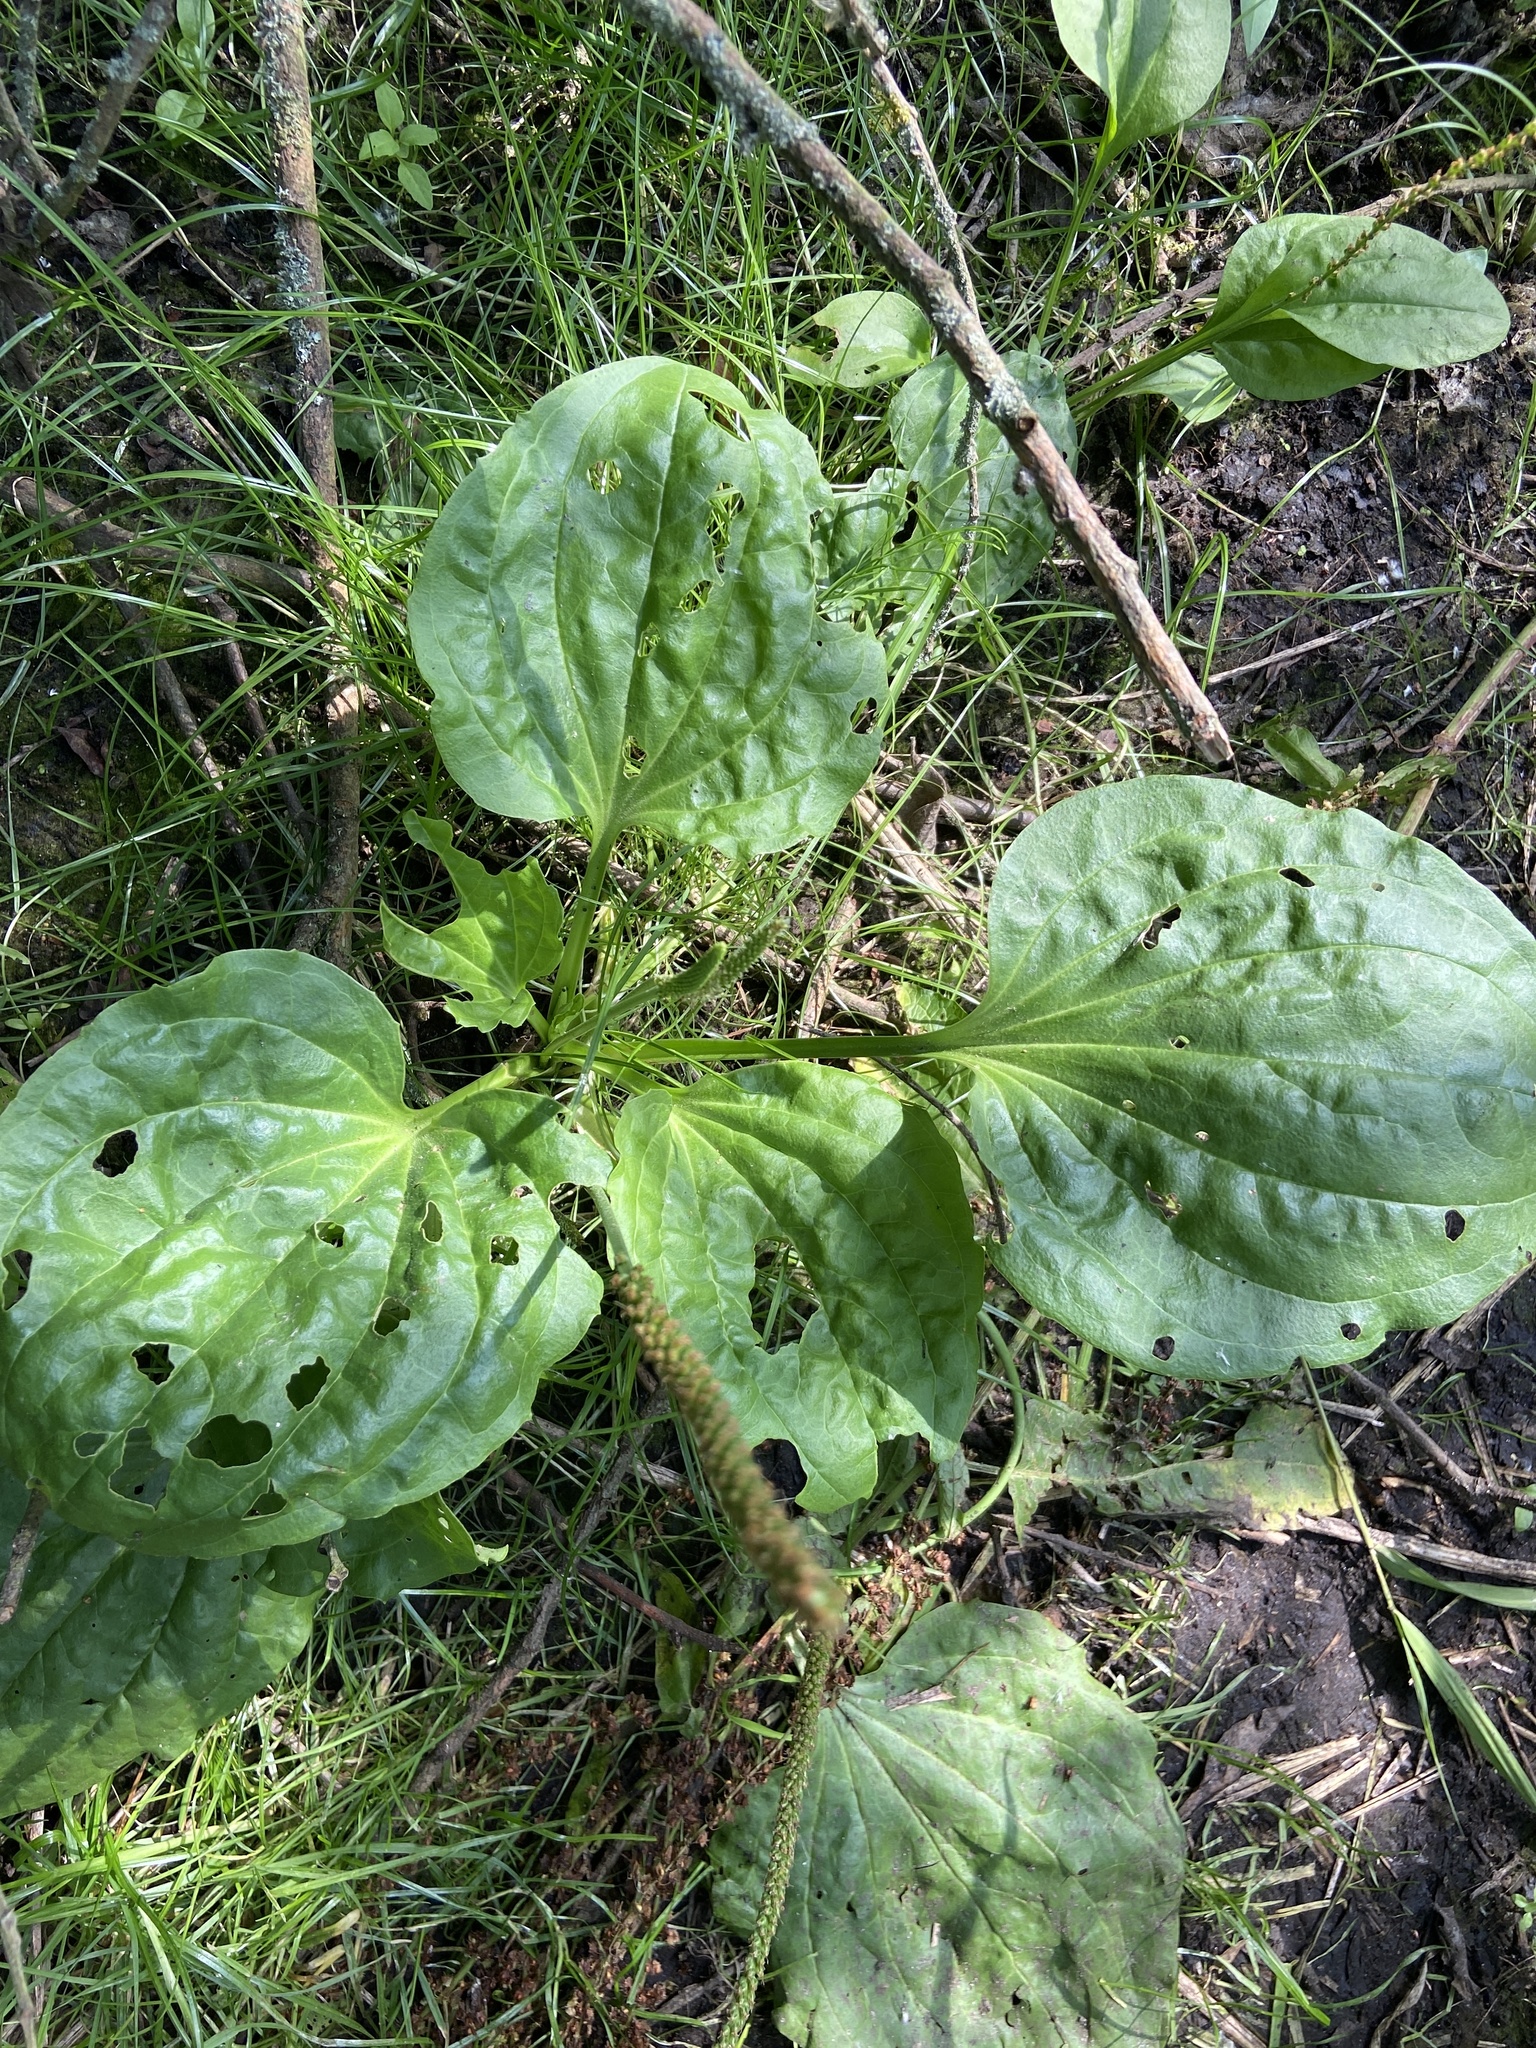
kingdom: Plantae
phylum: Tracheophyta
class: Magnoliopsida
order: Lamiales
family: Plantaginaceae
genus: Plantago
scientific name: Plantago major
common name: Common plantain
